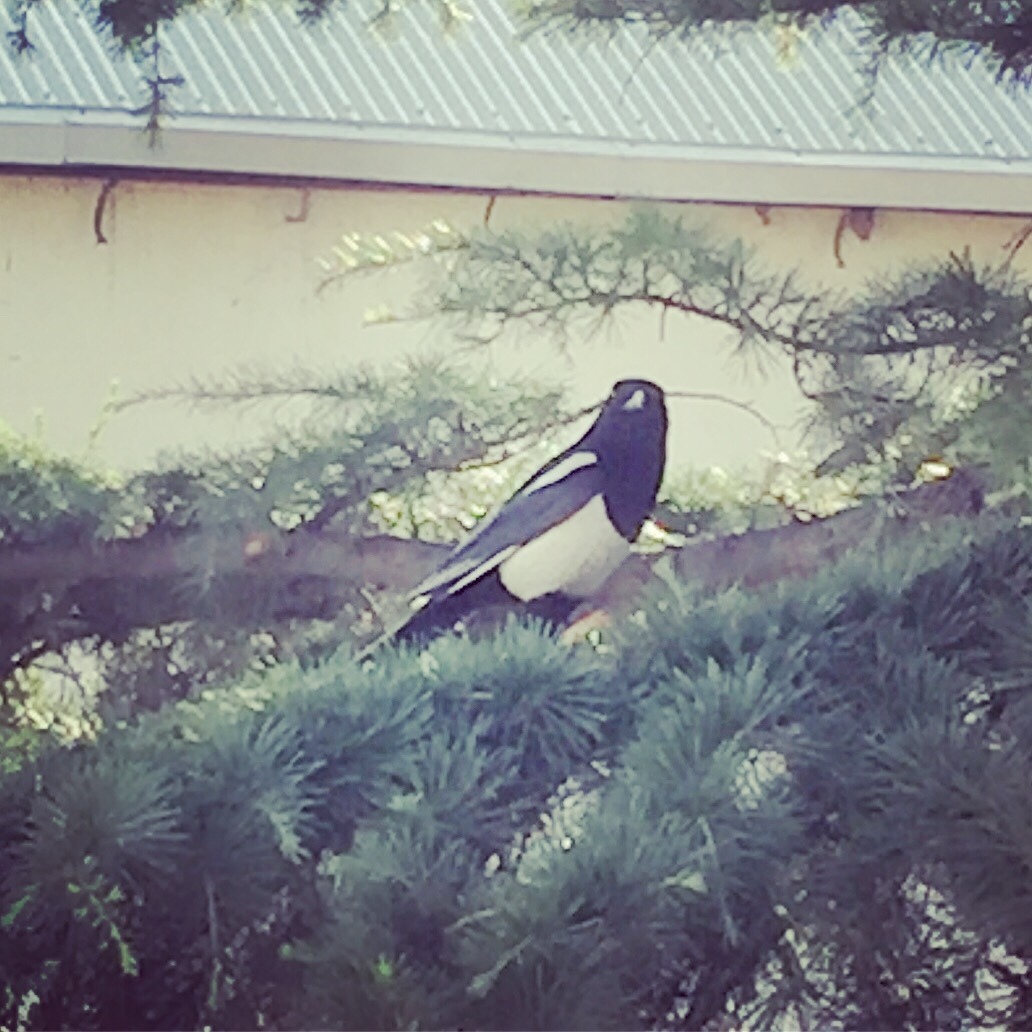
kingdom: Animalia
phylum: Chordata
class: Aves
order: Passeriformes
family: Corvidae
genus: Pica
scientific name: Pica pica
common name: Eurasian magpie
